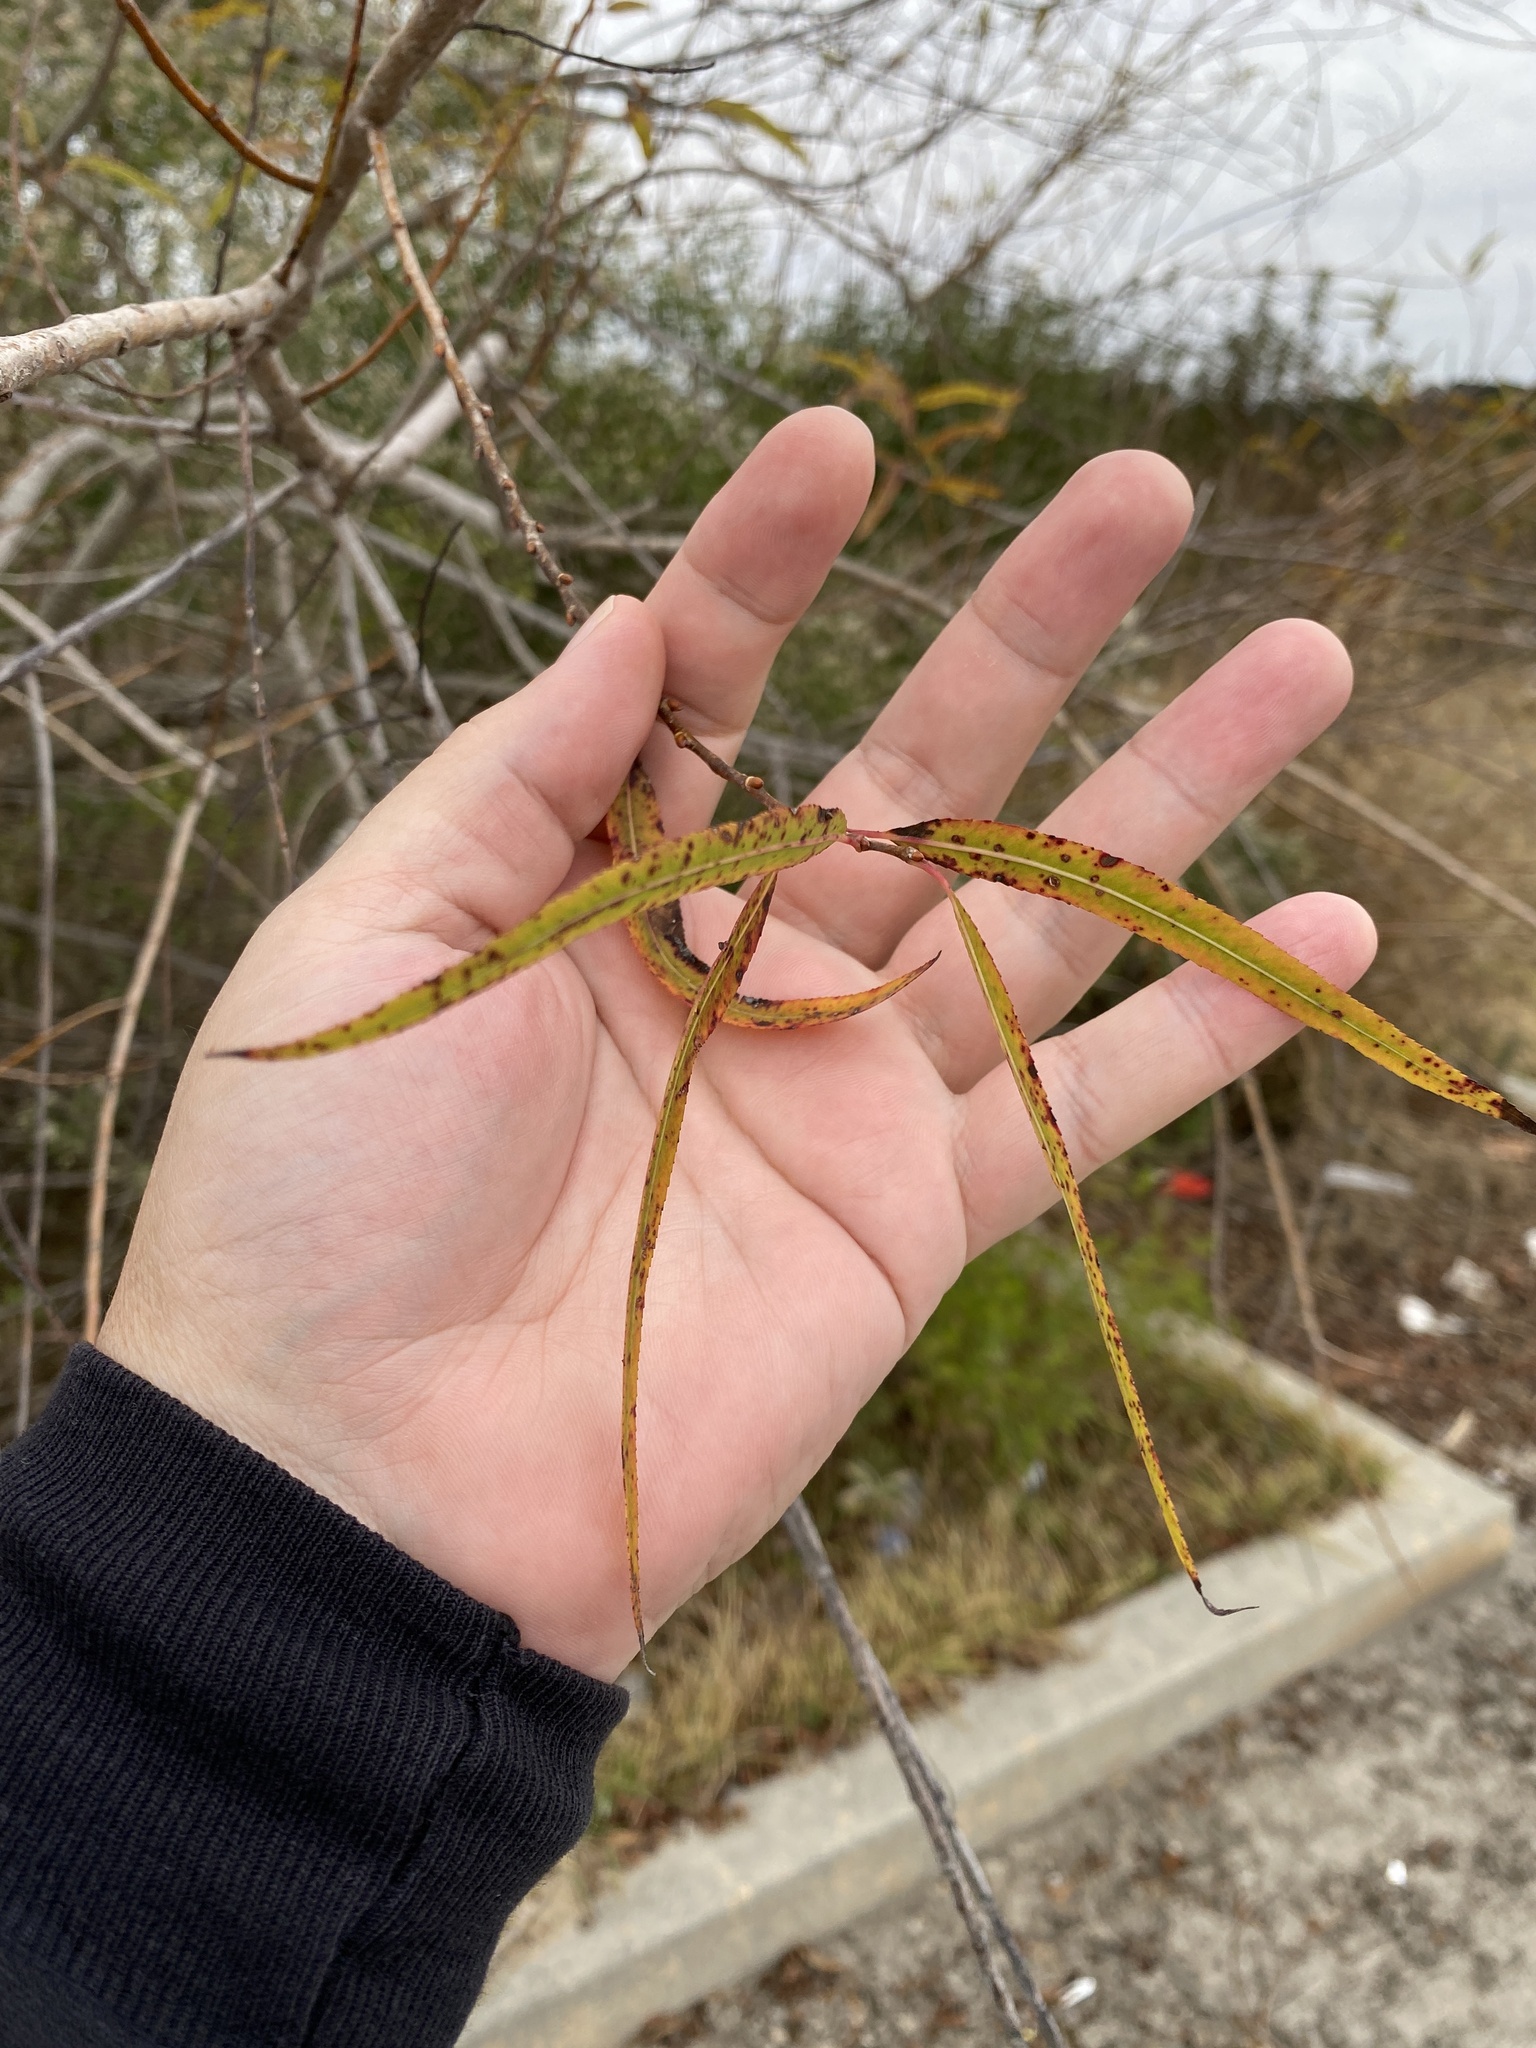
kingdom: Plantae
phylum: Tracheophyta
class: Magnoliopsida
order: Malpighiales
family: Salicaceae
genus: Salix
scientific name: Salix nigra
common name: Black willow
